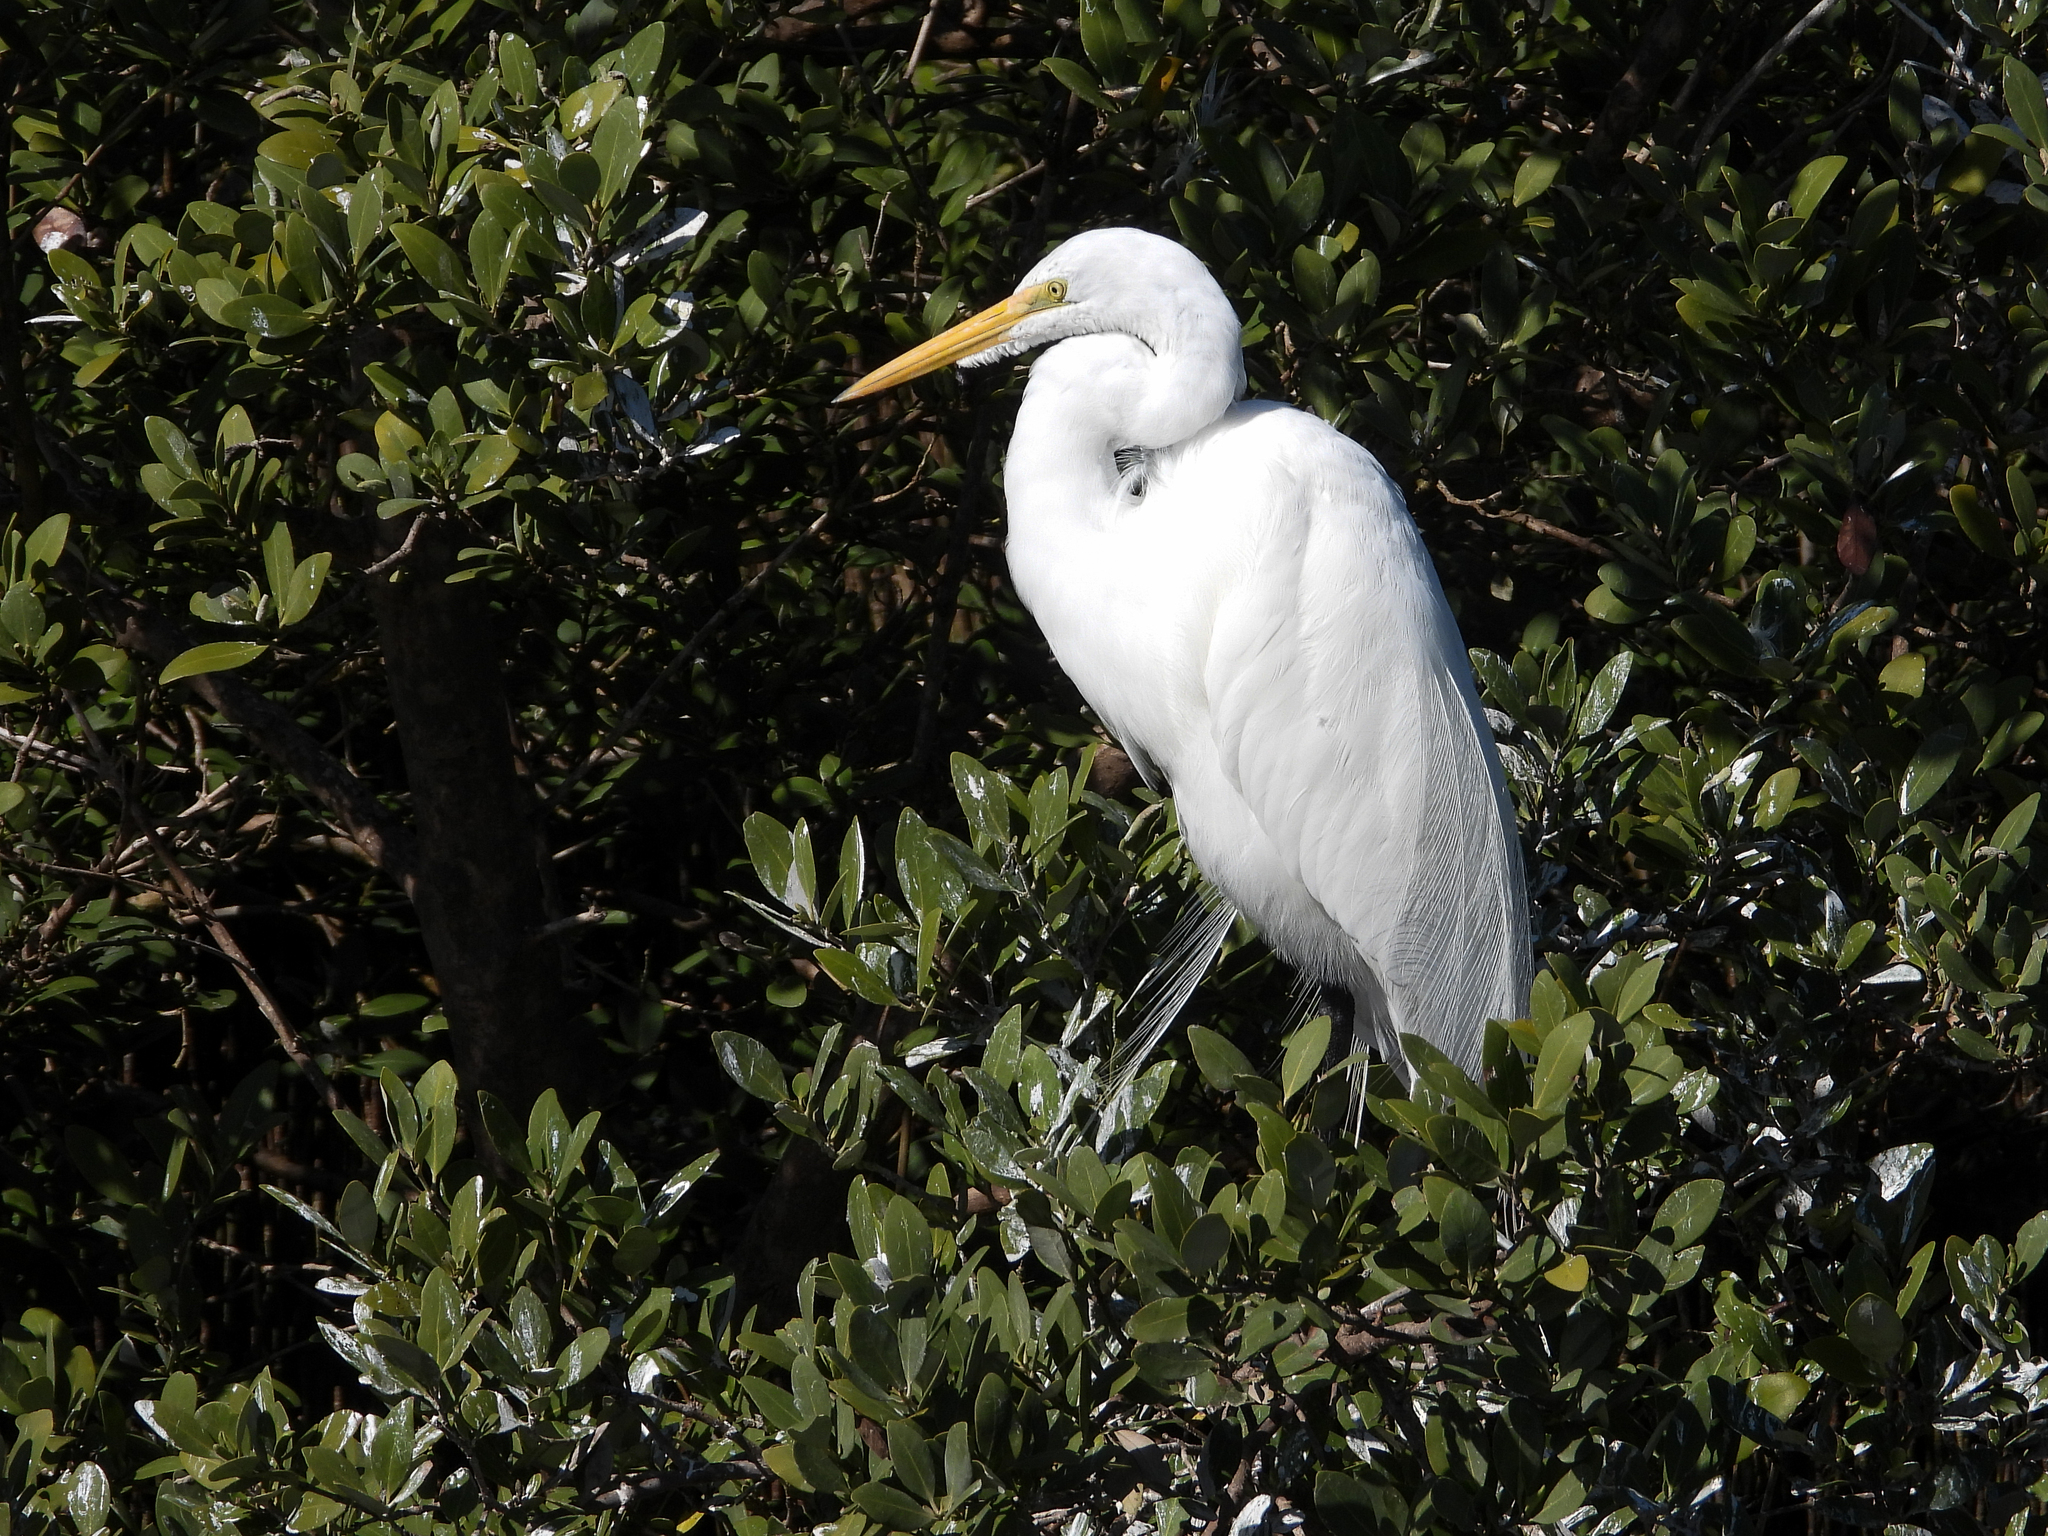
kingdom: Animalia
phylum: Chordata
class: Aves
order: Pelecaniformes
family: Ardeidae
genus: Ardea
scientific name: Ardea alba
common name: Great egret
